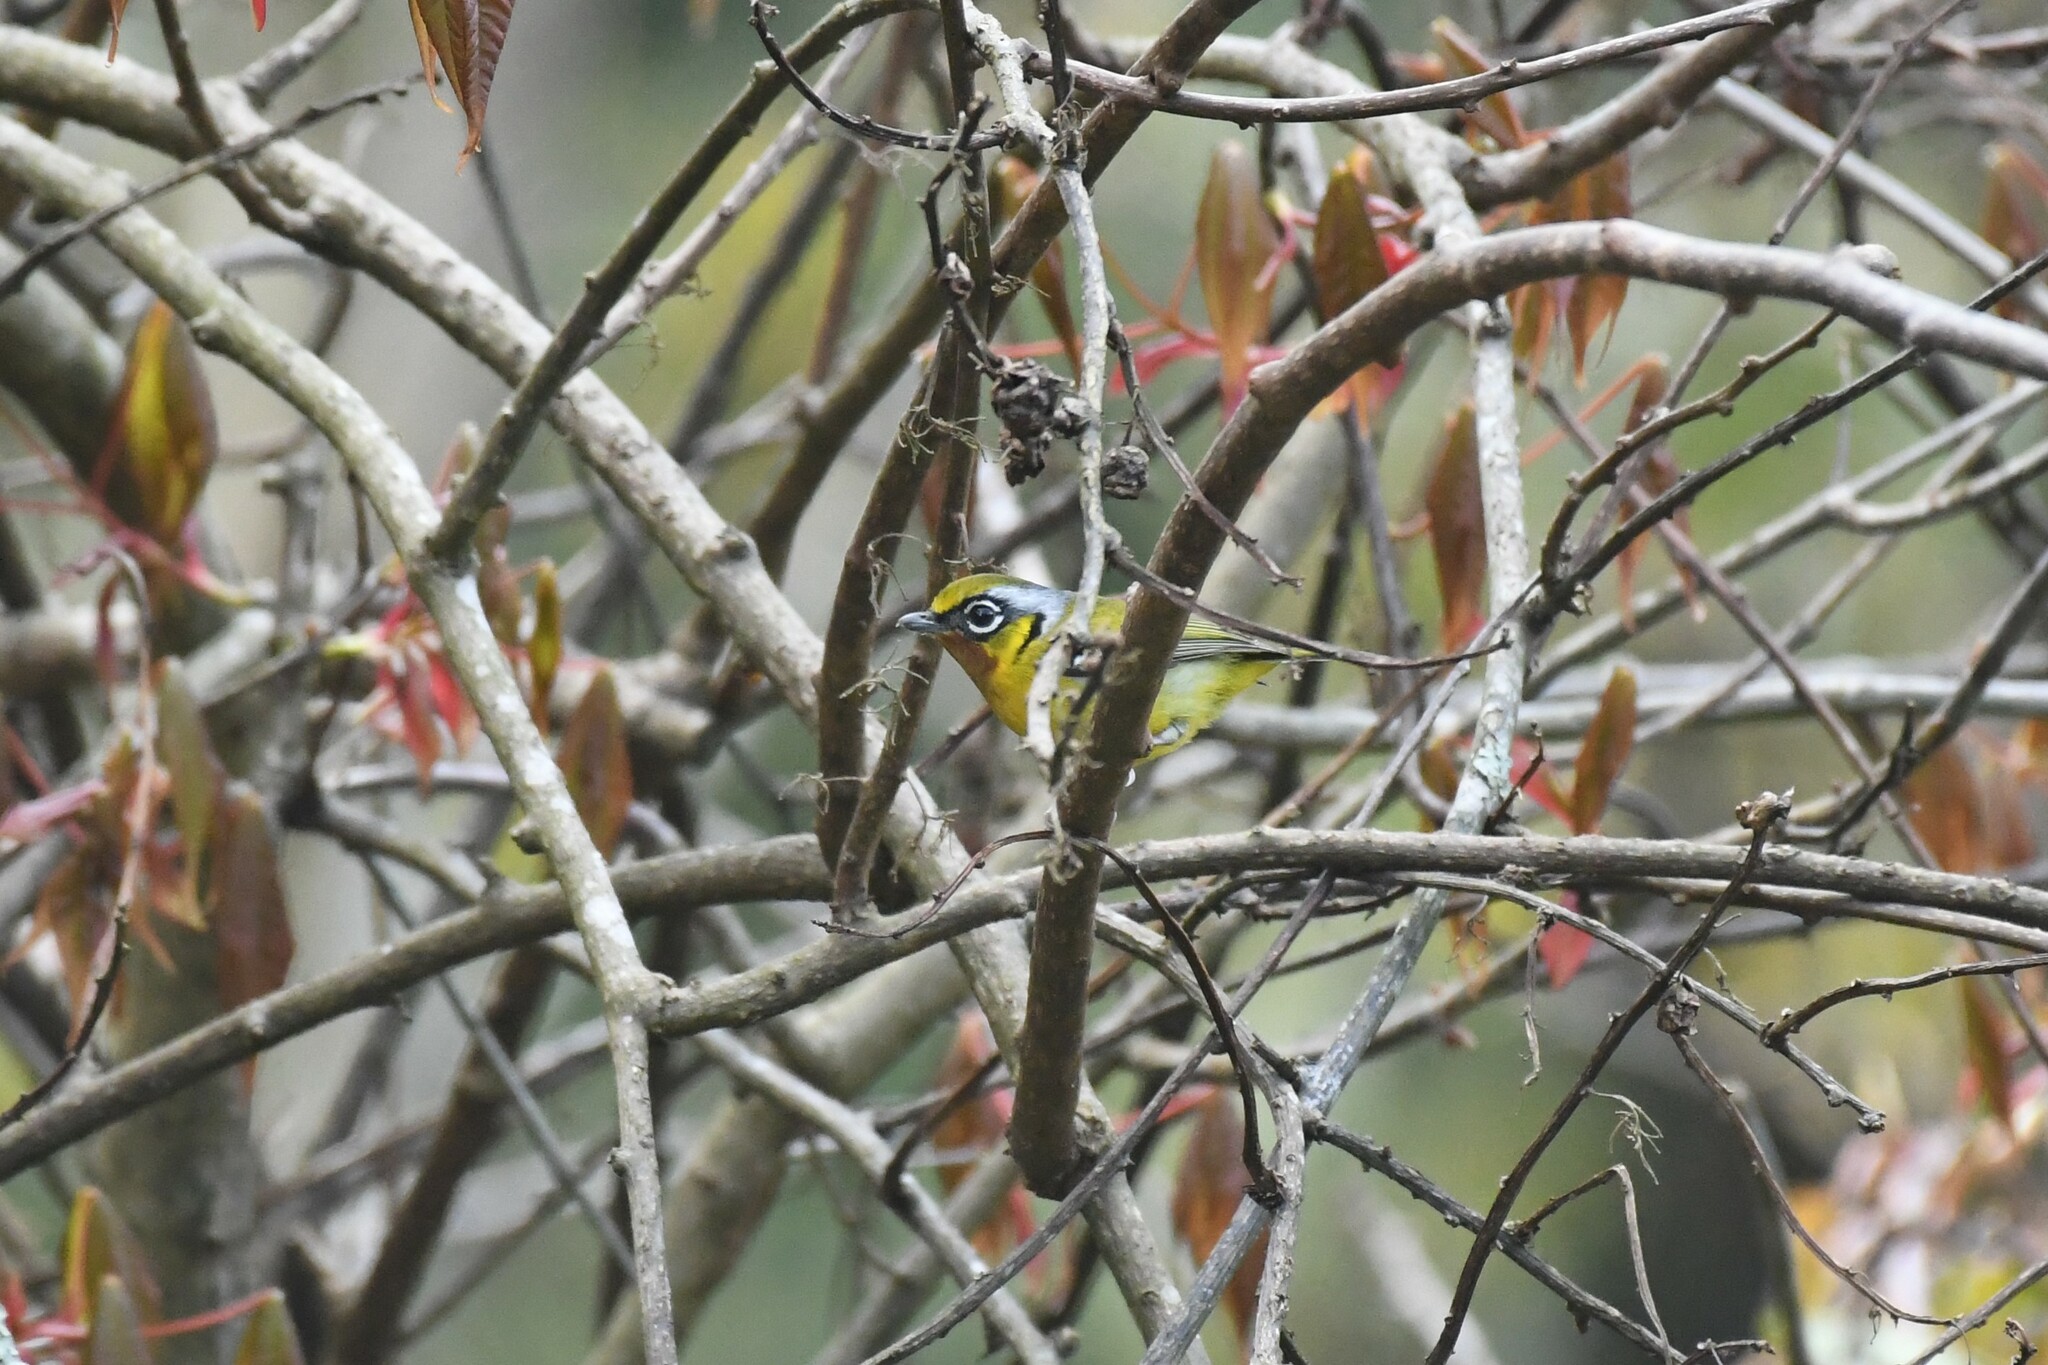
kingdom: Animalia
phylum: Chordata
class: Aves
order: Passeriformes
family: Vireonidae
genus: Pteruthius
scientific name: Pteruthius melanotis
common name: Black-eared shrike-babbler
